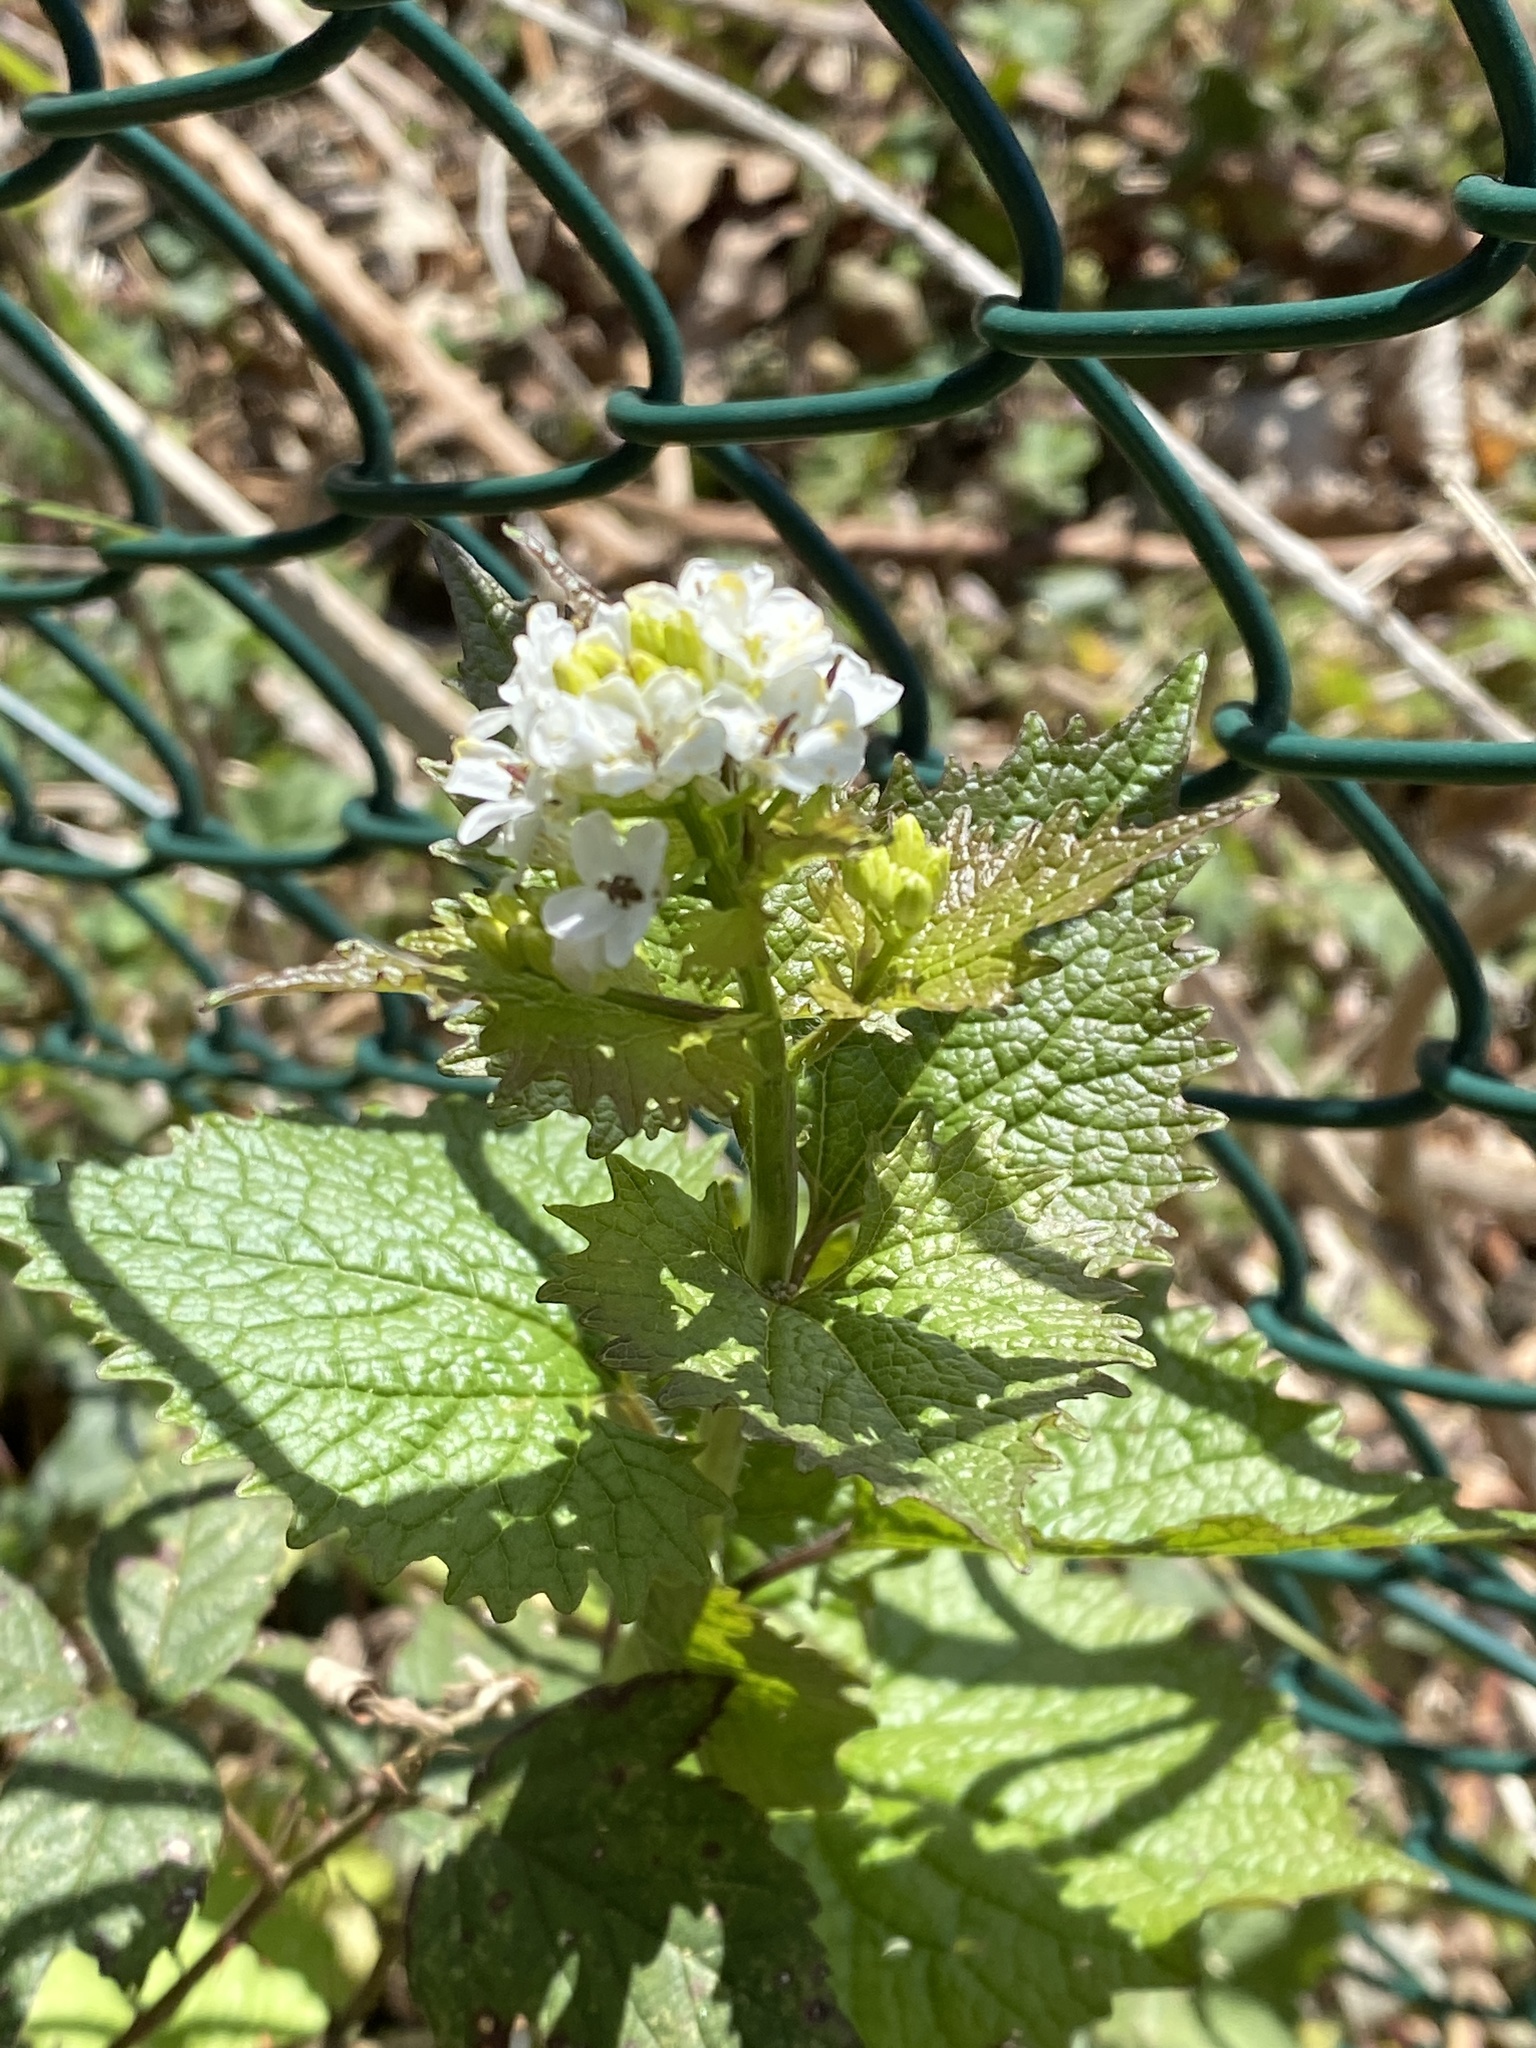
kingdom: Plantae
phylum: Tracheophyta
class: Magnoliopsida
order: Brassicales
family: Brassicaceae
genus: Alliaria
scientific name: Alliaria petiolata
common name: Garlic mustard
